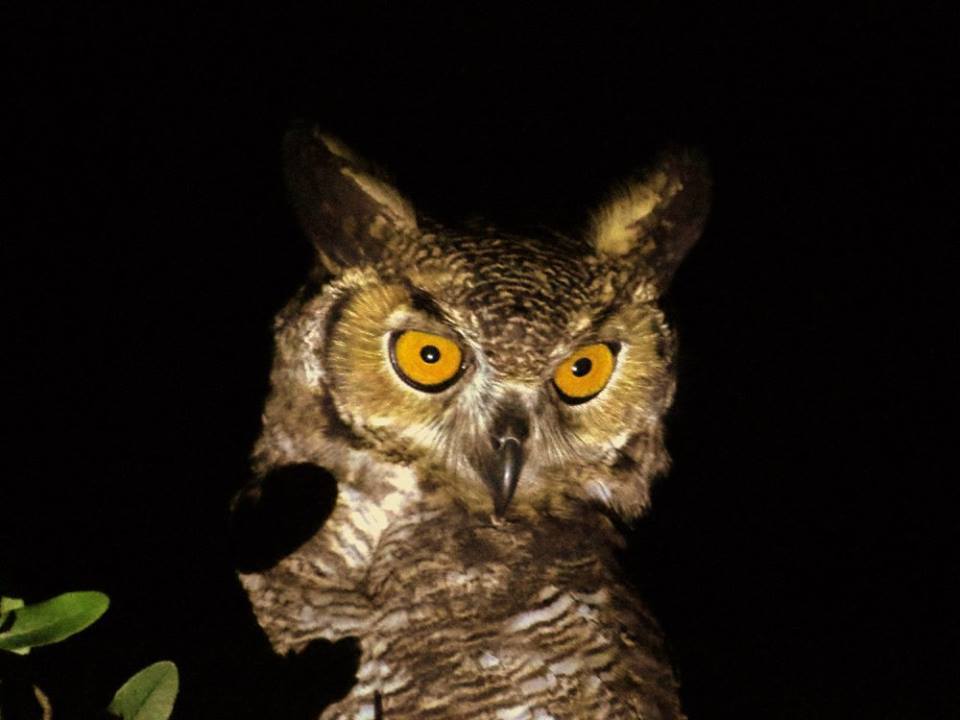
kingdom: Animalia
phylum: Chordata
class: Aves
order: Strigiformes
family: Strigidae
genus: Bubo
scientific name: Bubo virginianus
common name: Great horned owl
